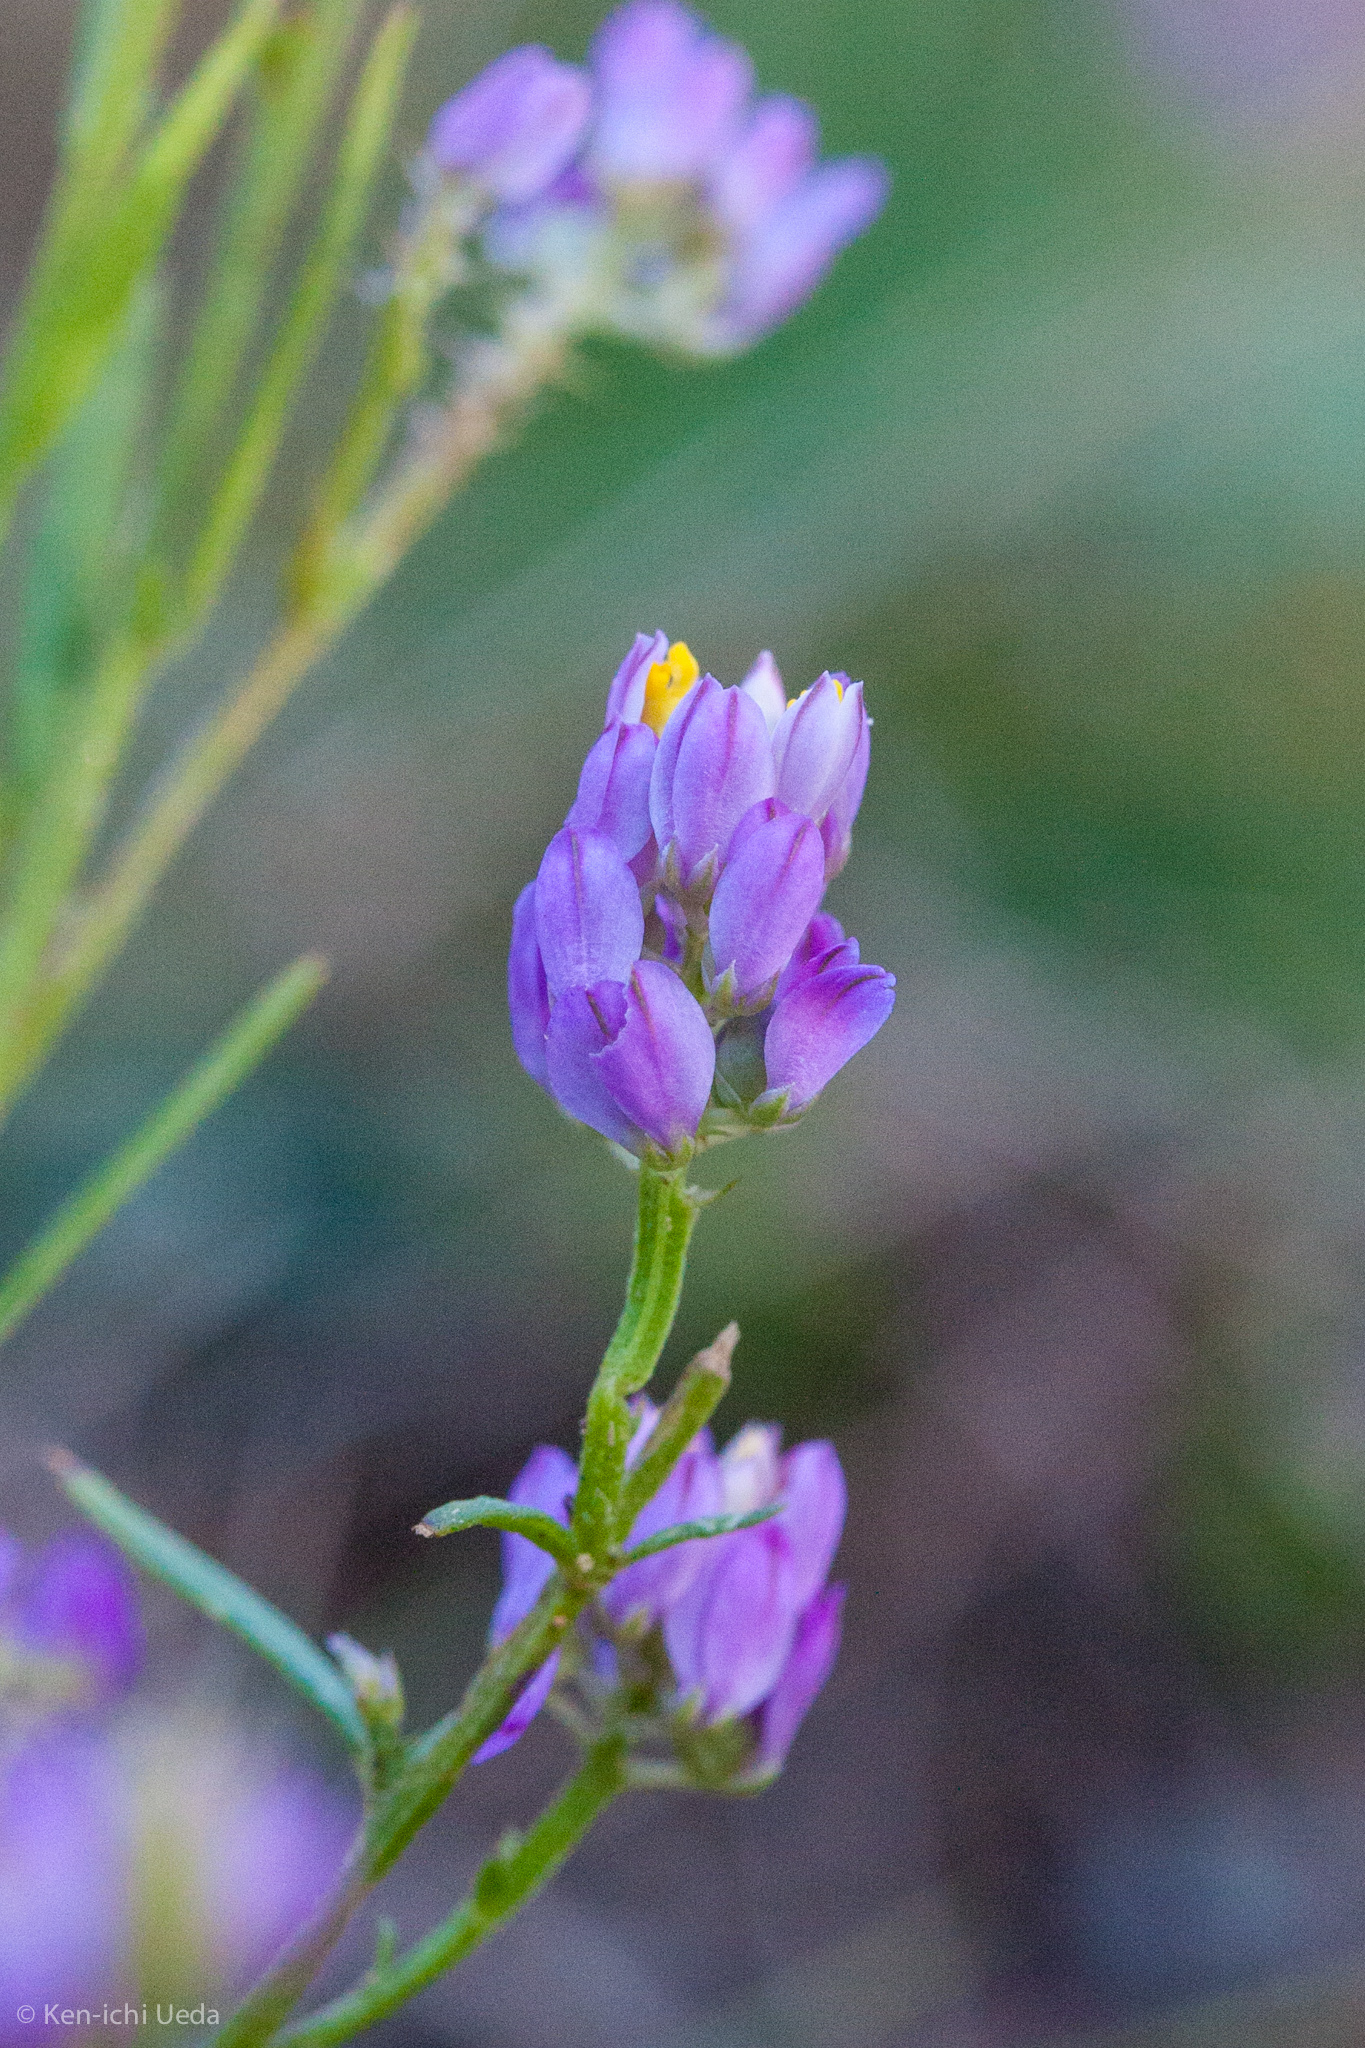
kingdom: Plantae
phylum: Tracheophyta
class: Magnoliopsida
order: Fabales
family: Polygalaceae
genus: Polygala
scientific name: Polygala nuttallii
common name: Nuttall's milkwort
